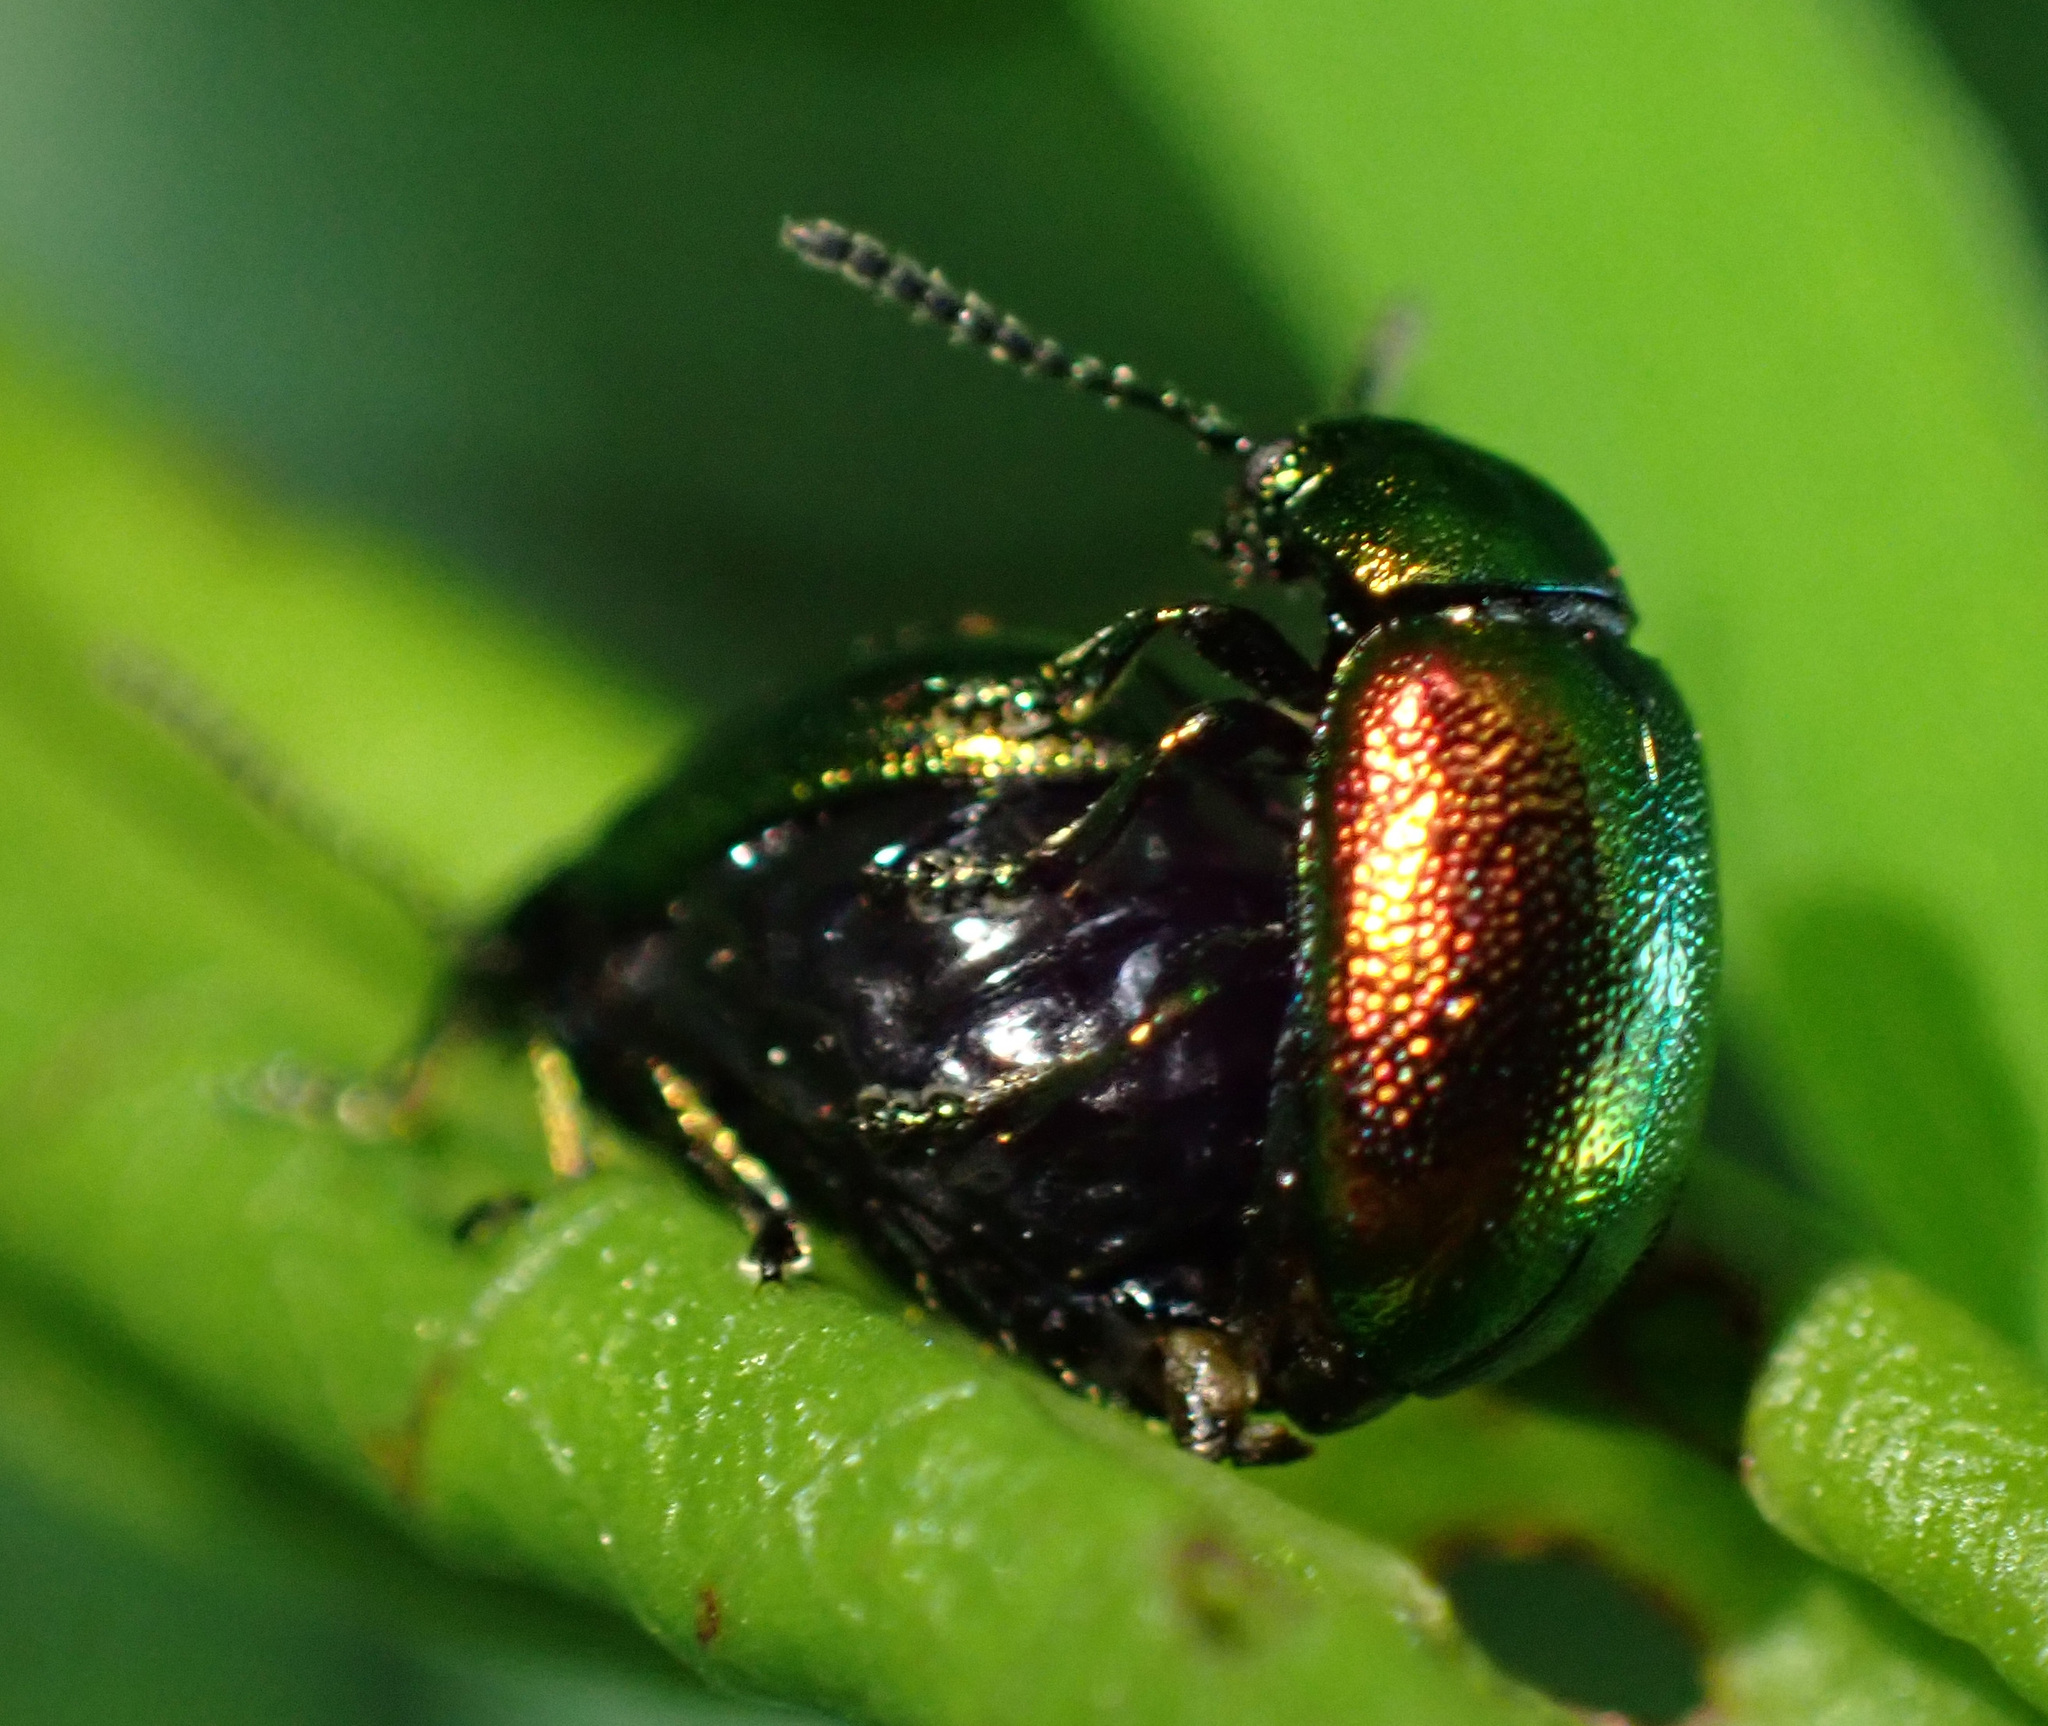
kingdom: Animalia
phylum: Arthropoda
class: Insecta
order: Coleoptera
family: Chrysomelidae
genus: Gastrophysa
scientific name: Gastrophysa viridula
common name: Green dock beetle
